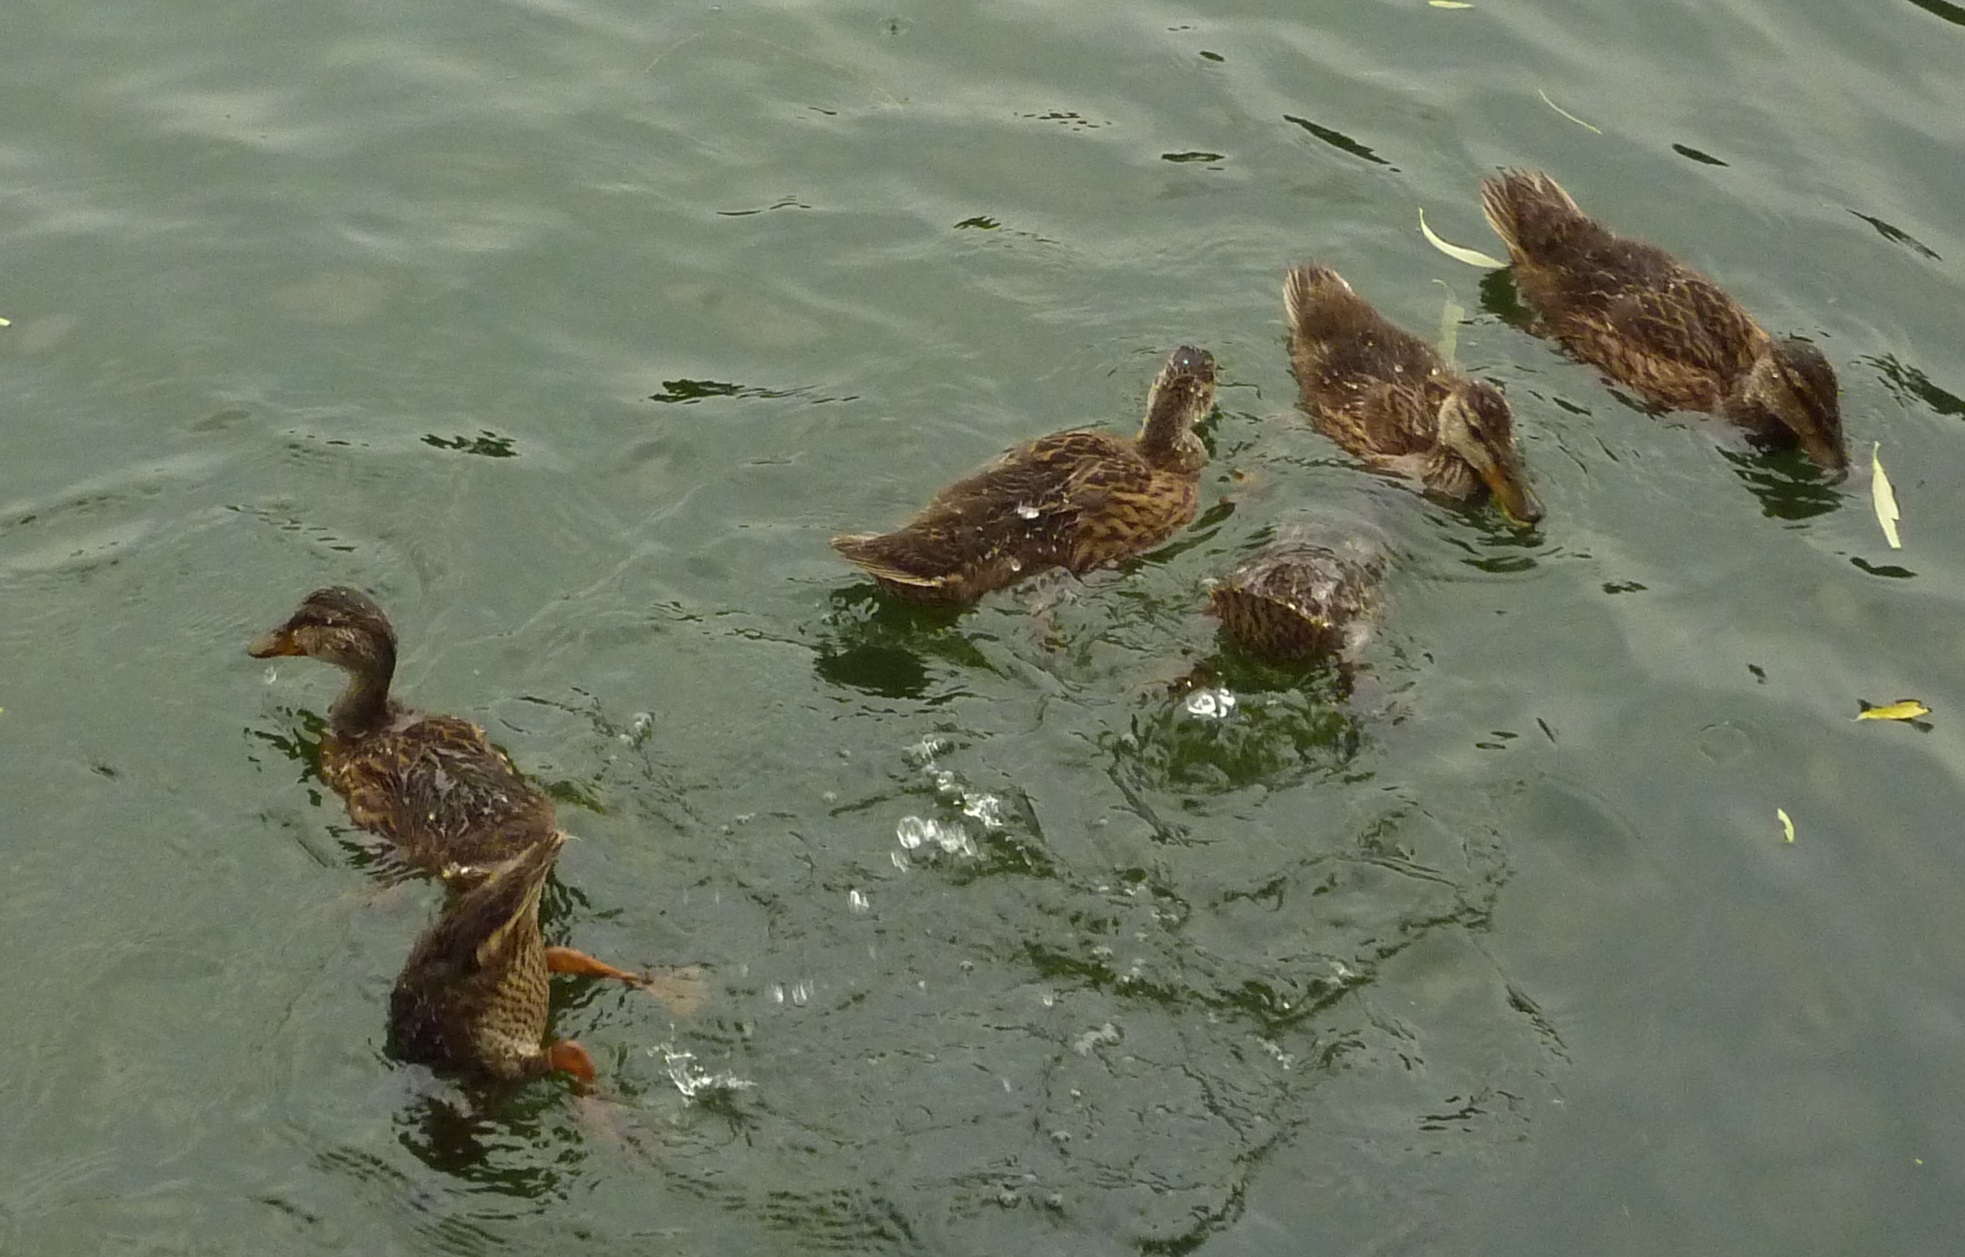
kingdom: Animalia
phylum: Chordata
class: Aves
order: Anseriformes
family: Anatidae
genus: Anas
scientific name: Anas platyrhynchos
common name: Mallard
